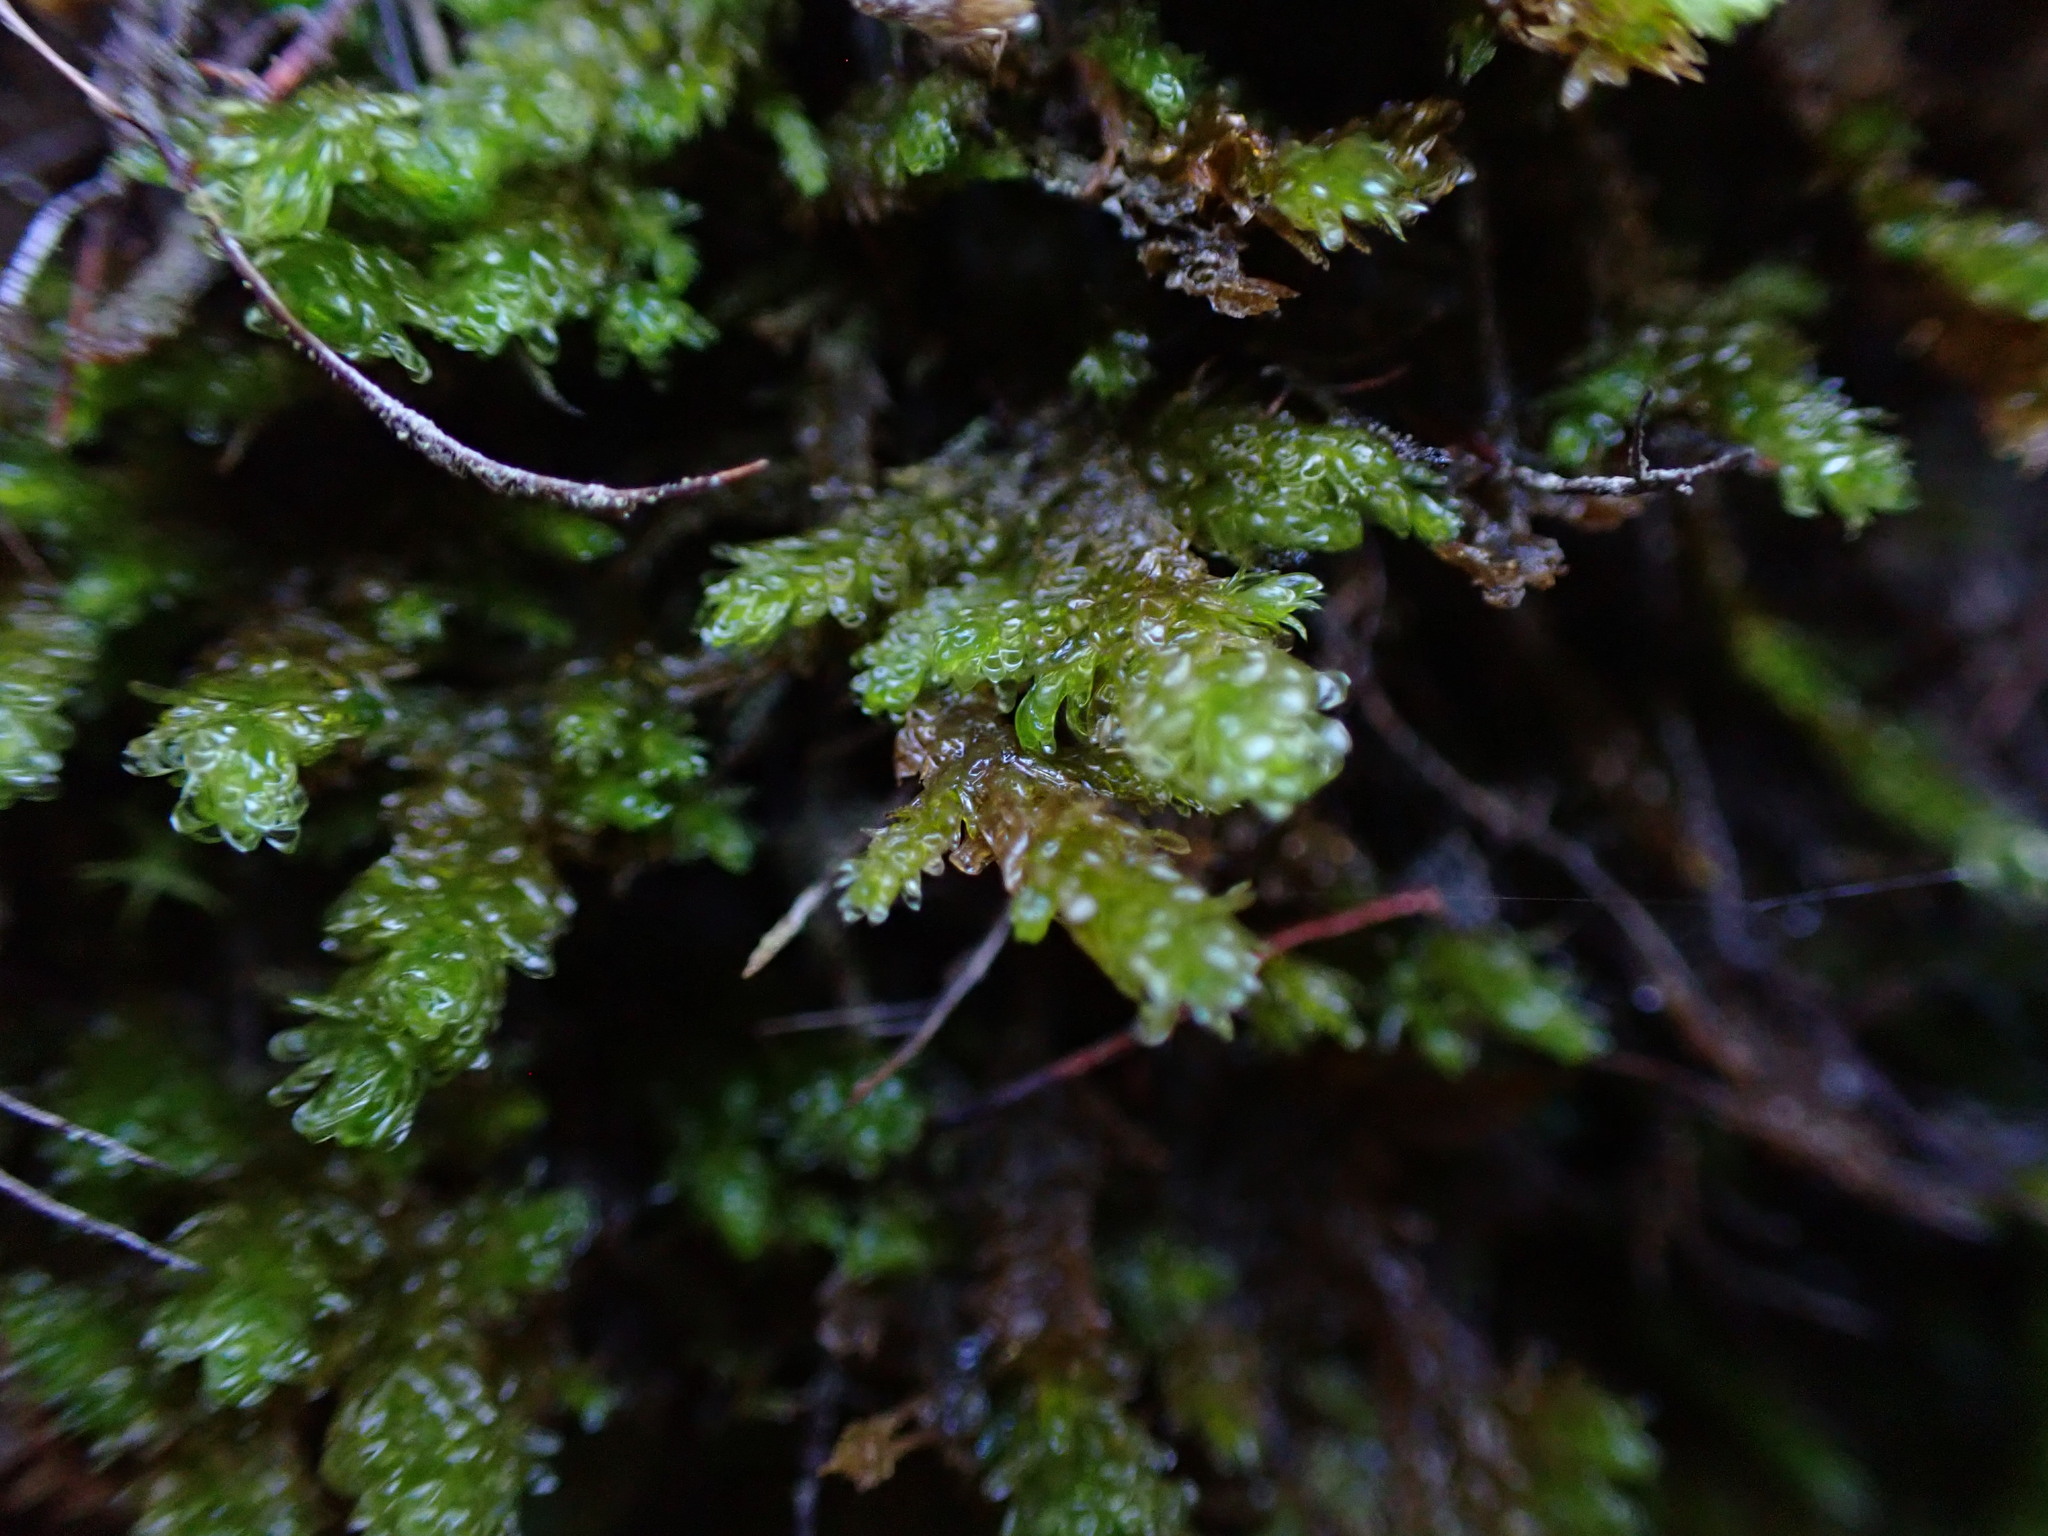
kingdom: Plantae
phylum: Bryophyta
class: Bryopsida
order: Hypnales
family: Neckeraceae
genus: Metaneckera
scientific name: Metaneckera menziesii
